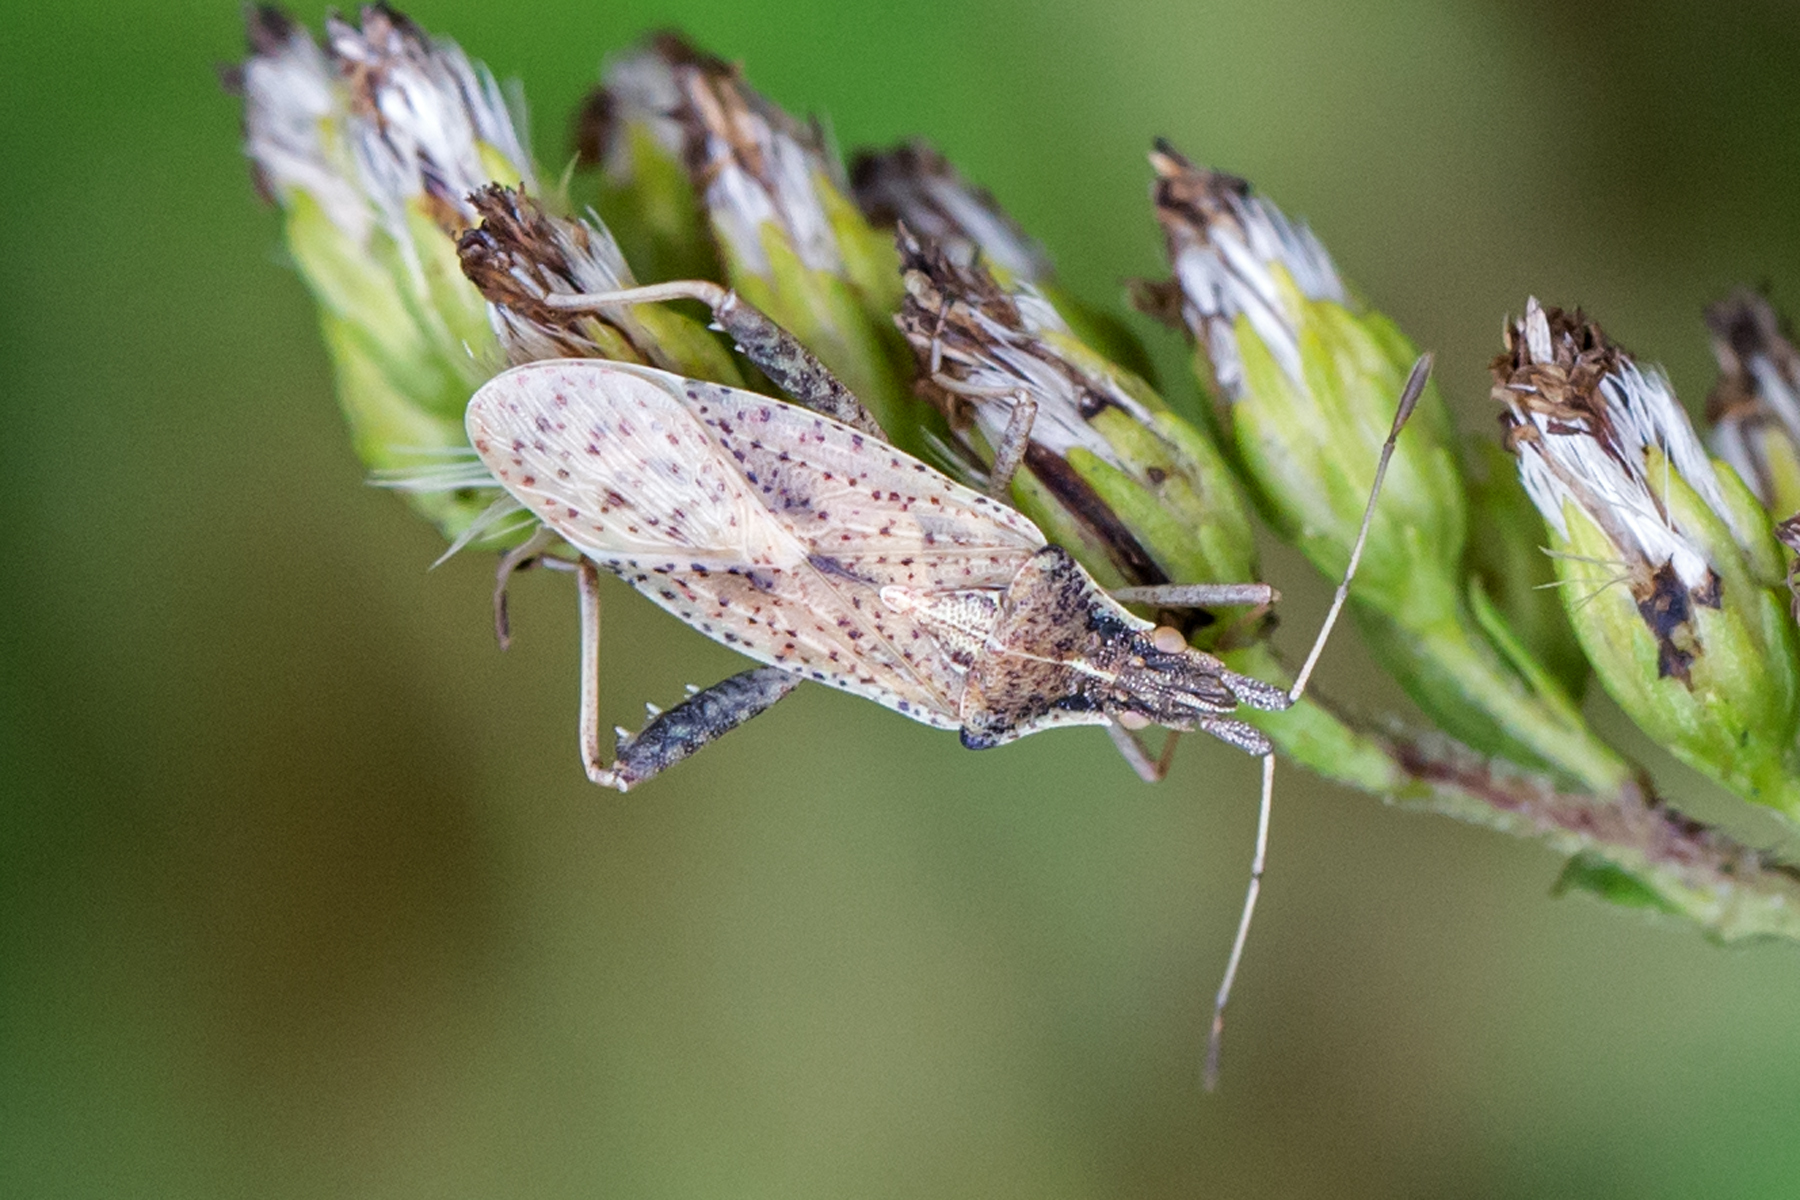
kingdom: Animalia
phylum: Arthropoda
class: Insecta
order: Hemiptera
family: Rhopalidae
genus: Harmostes
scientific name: Harmostes reflexulus
